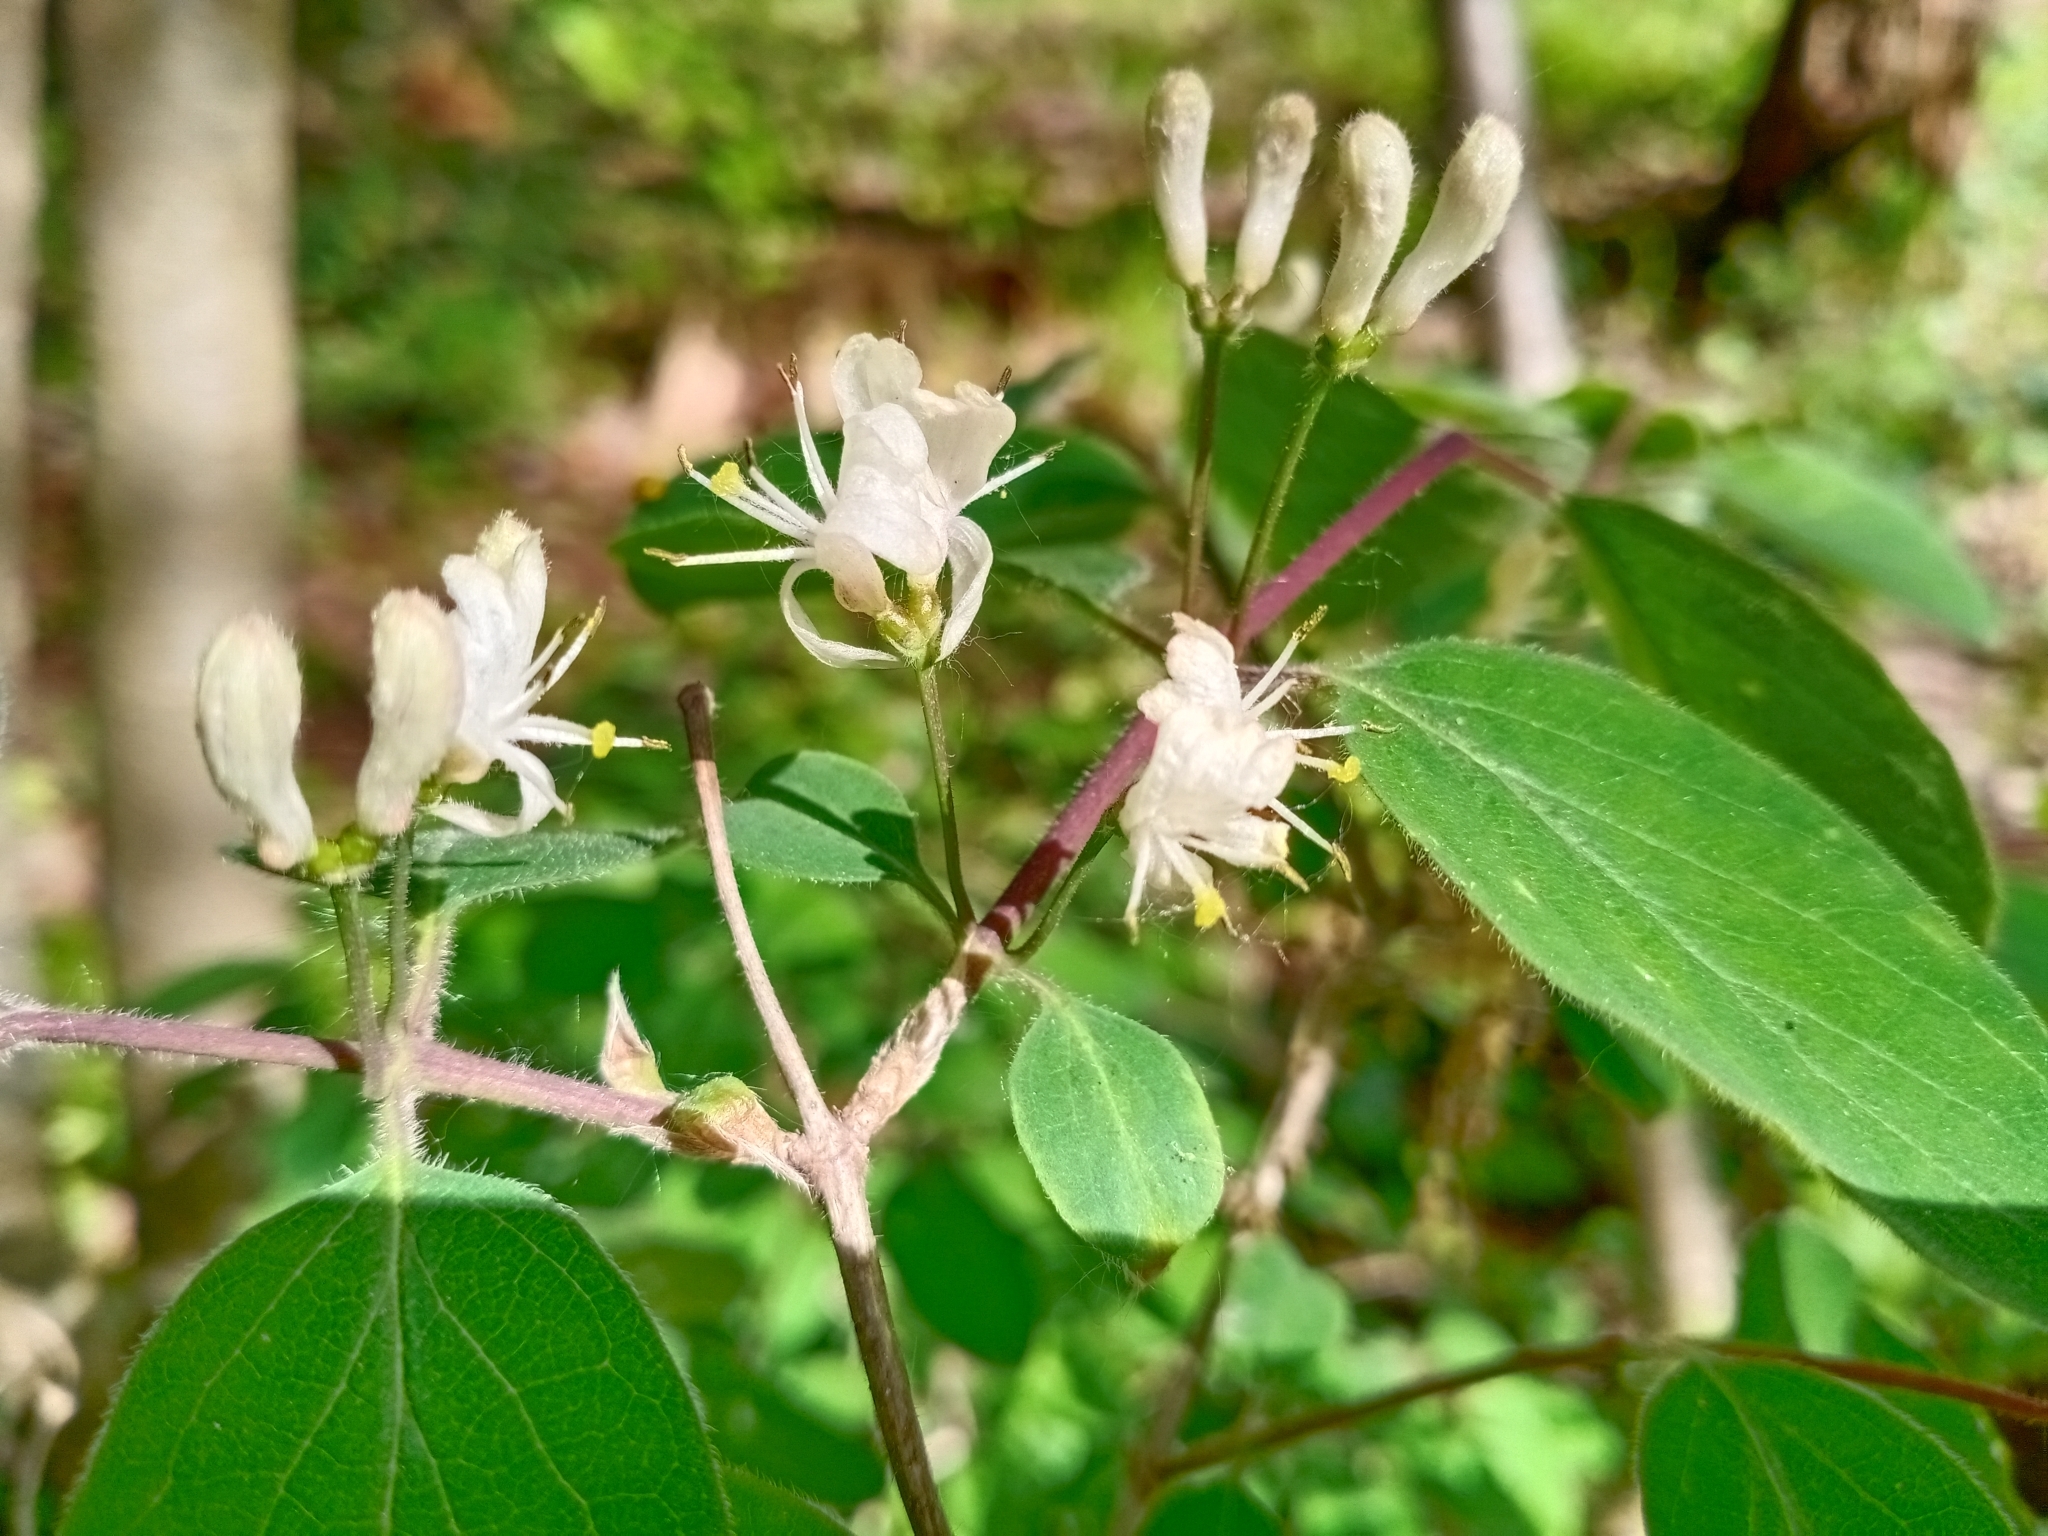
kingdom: Plantae
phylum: Tracheophyta
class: Magnoliopsida
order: Dipsacales
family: Caprifoliaceae
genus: Lonicera
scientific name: Lonicera xylosteum
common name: Fly honeysuckle
